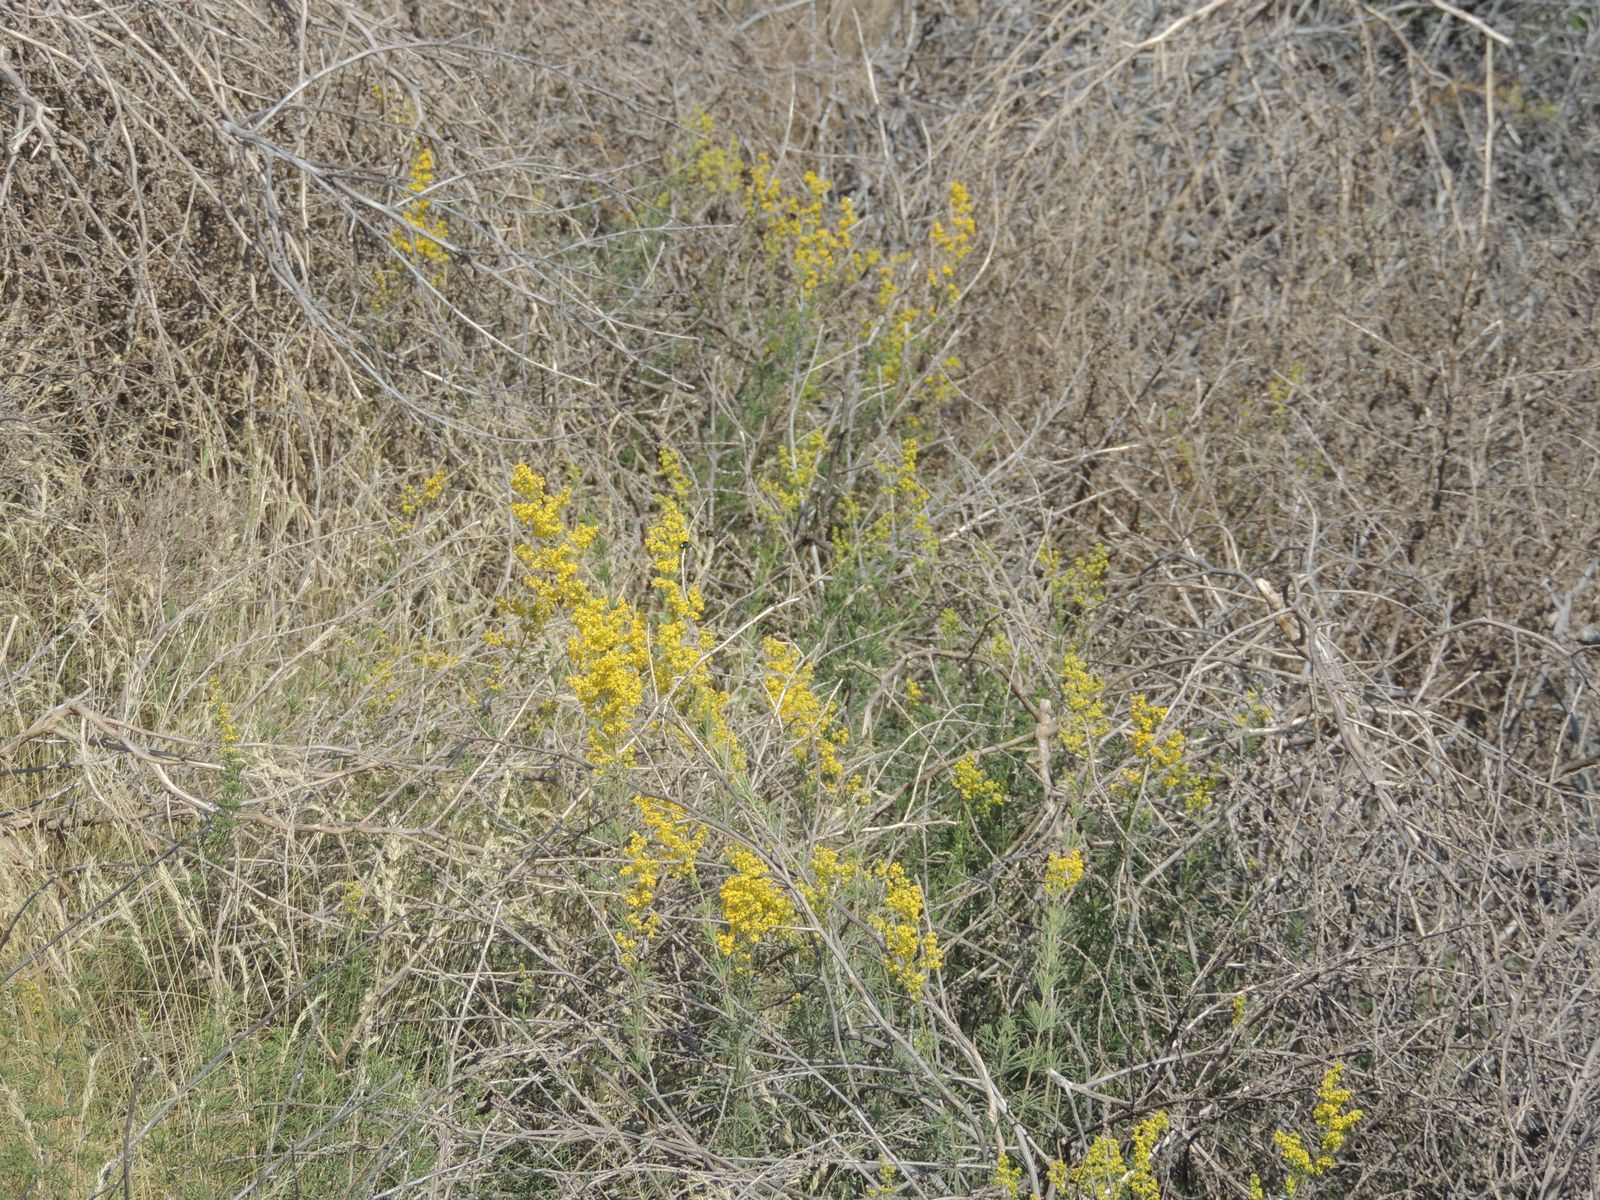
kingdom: Plantae
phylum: Tracheophyta
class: Magnoliopsida
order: Gentianales
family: Rubiaceae
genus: Galium
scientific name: Galium verum
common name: Lady's bedstraw
